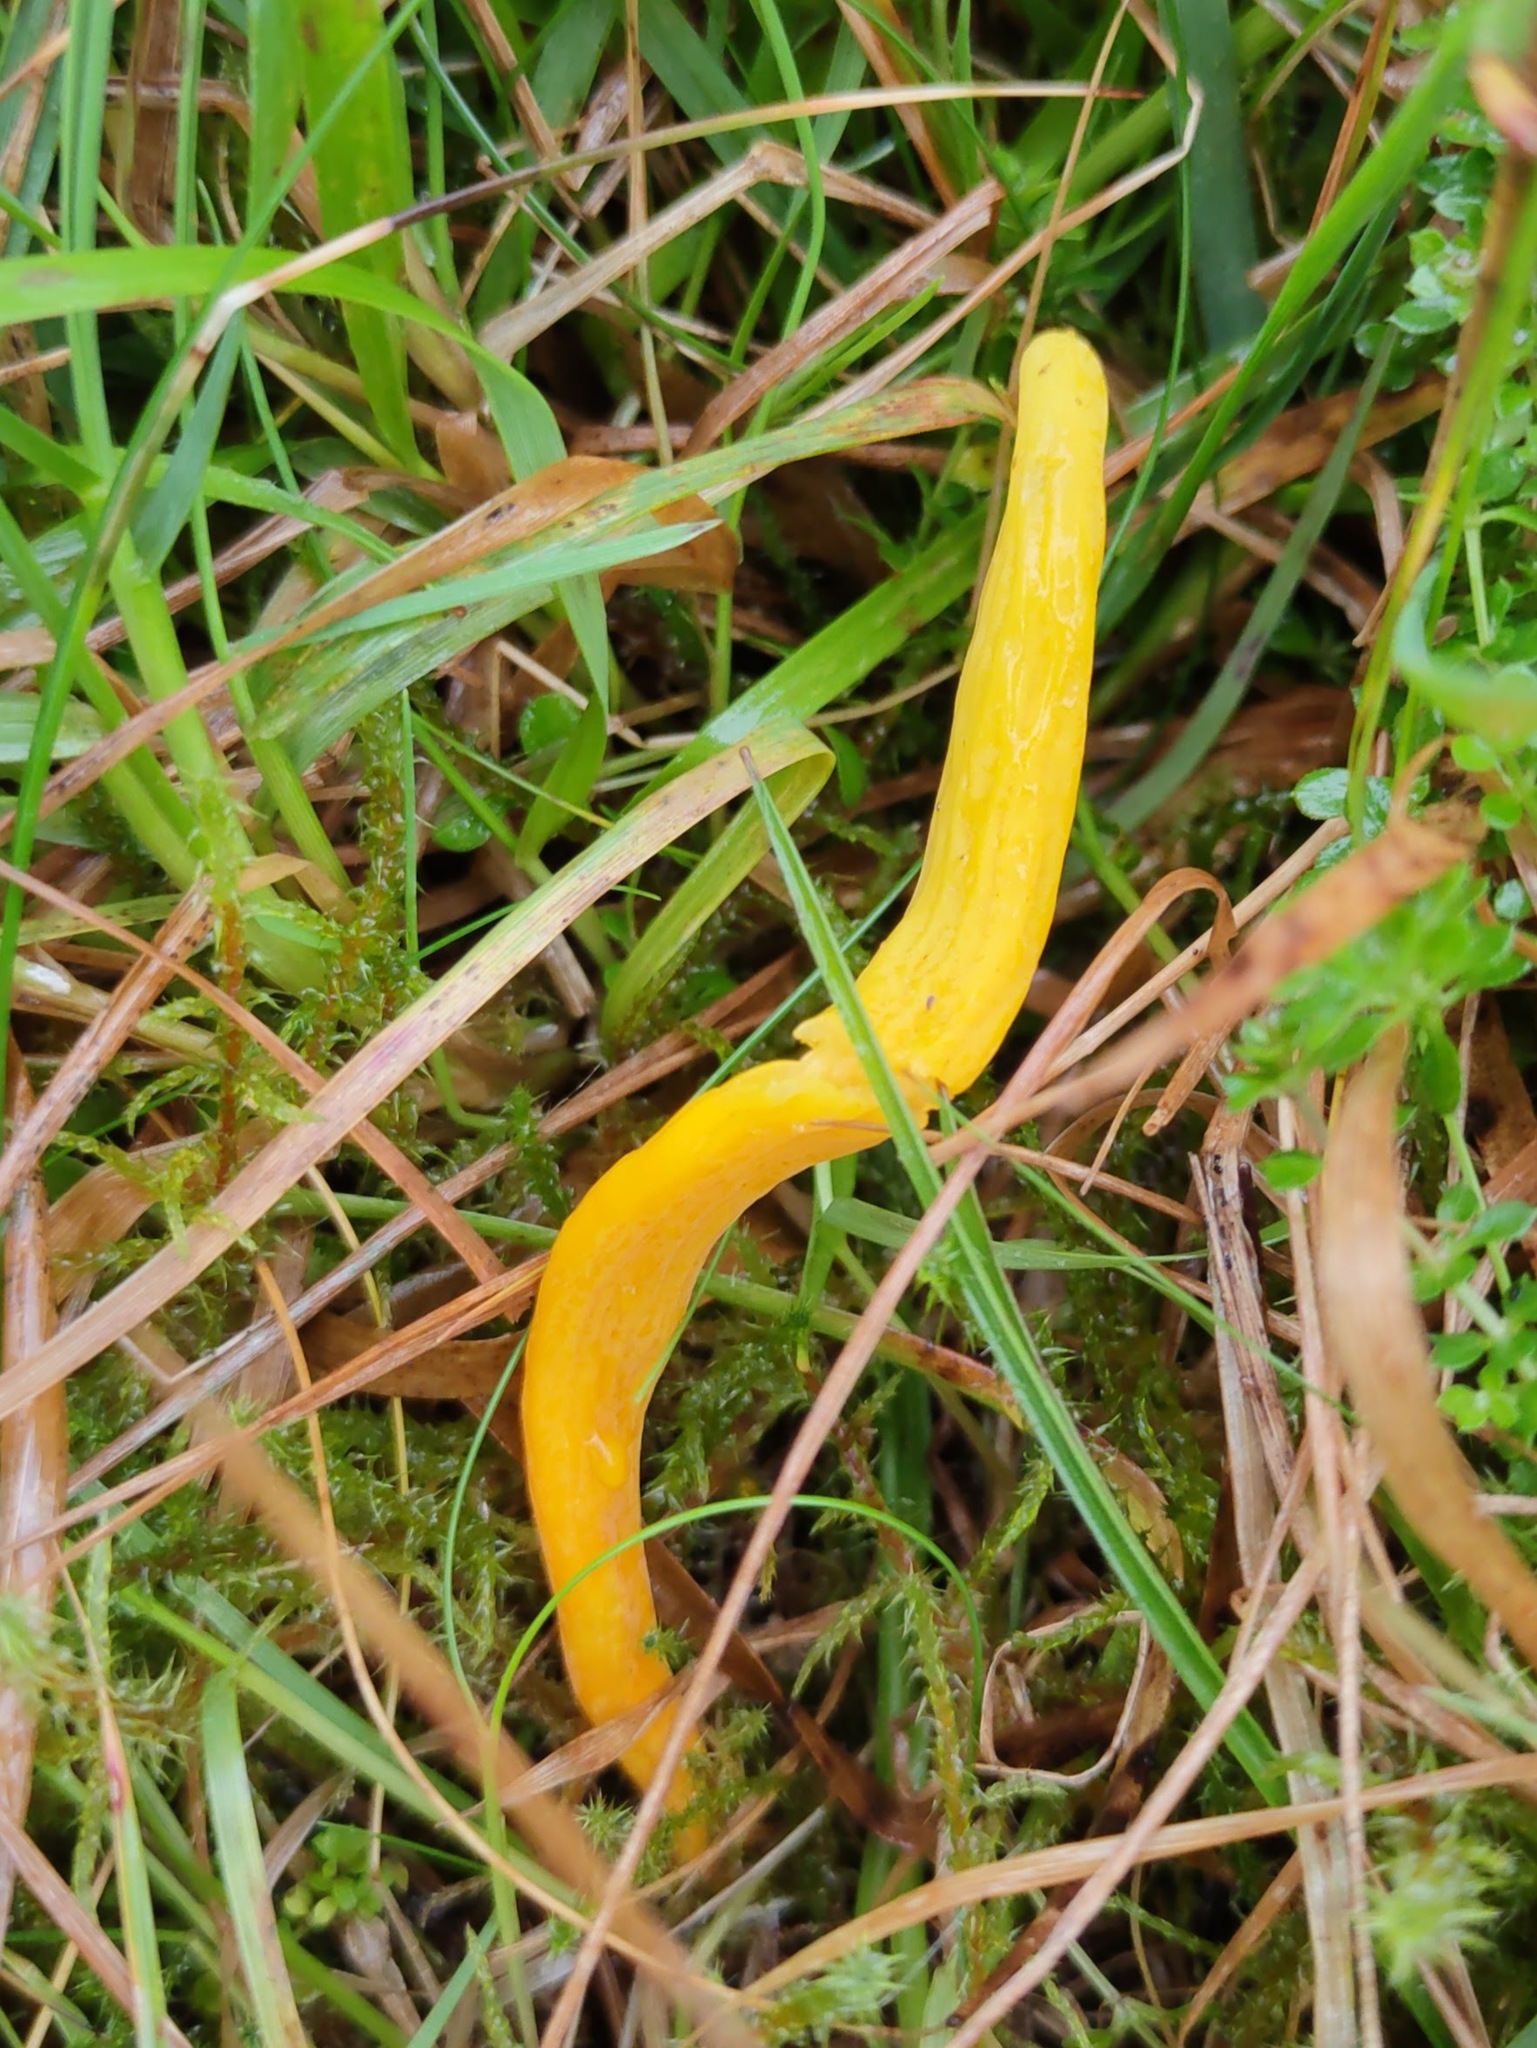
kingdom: Fungi
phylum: Basidiomycota
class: Agaricomycetes
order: Agaricales
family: Clavariaceae
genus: Clavulinopsis
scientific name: Clavulinopsis helvola
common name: Yellow club
